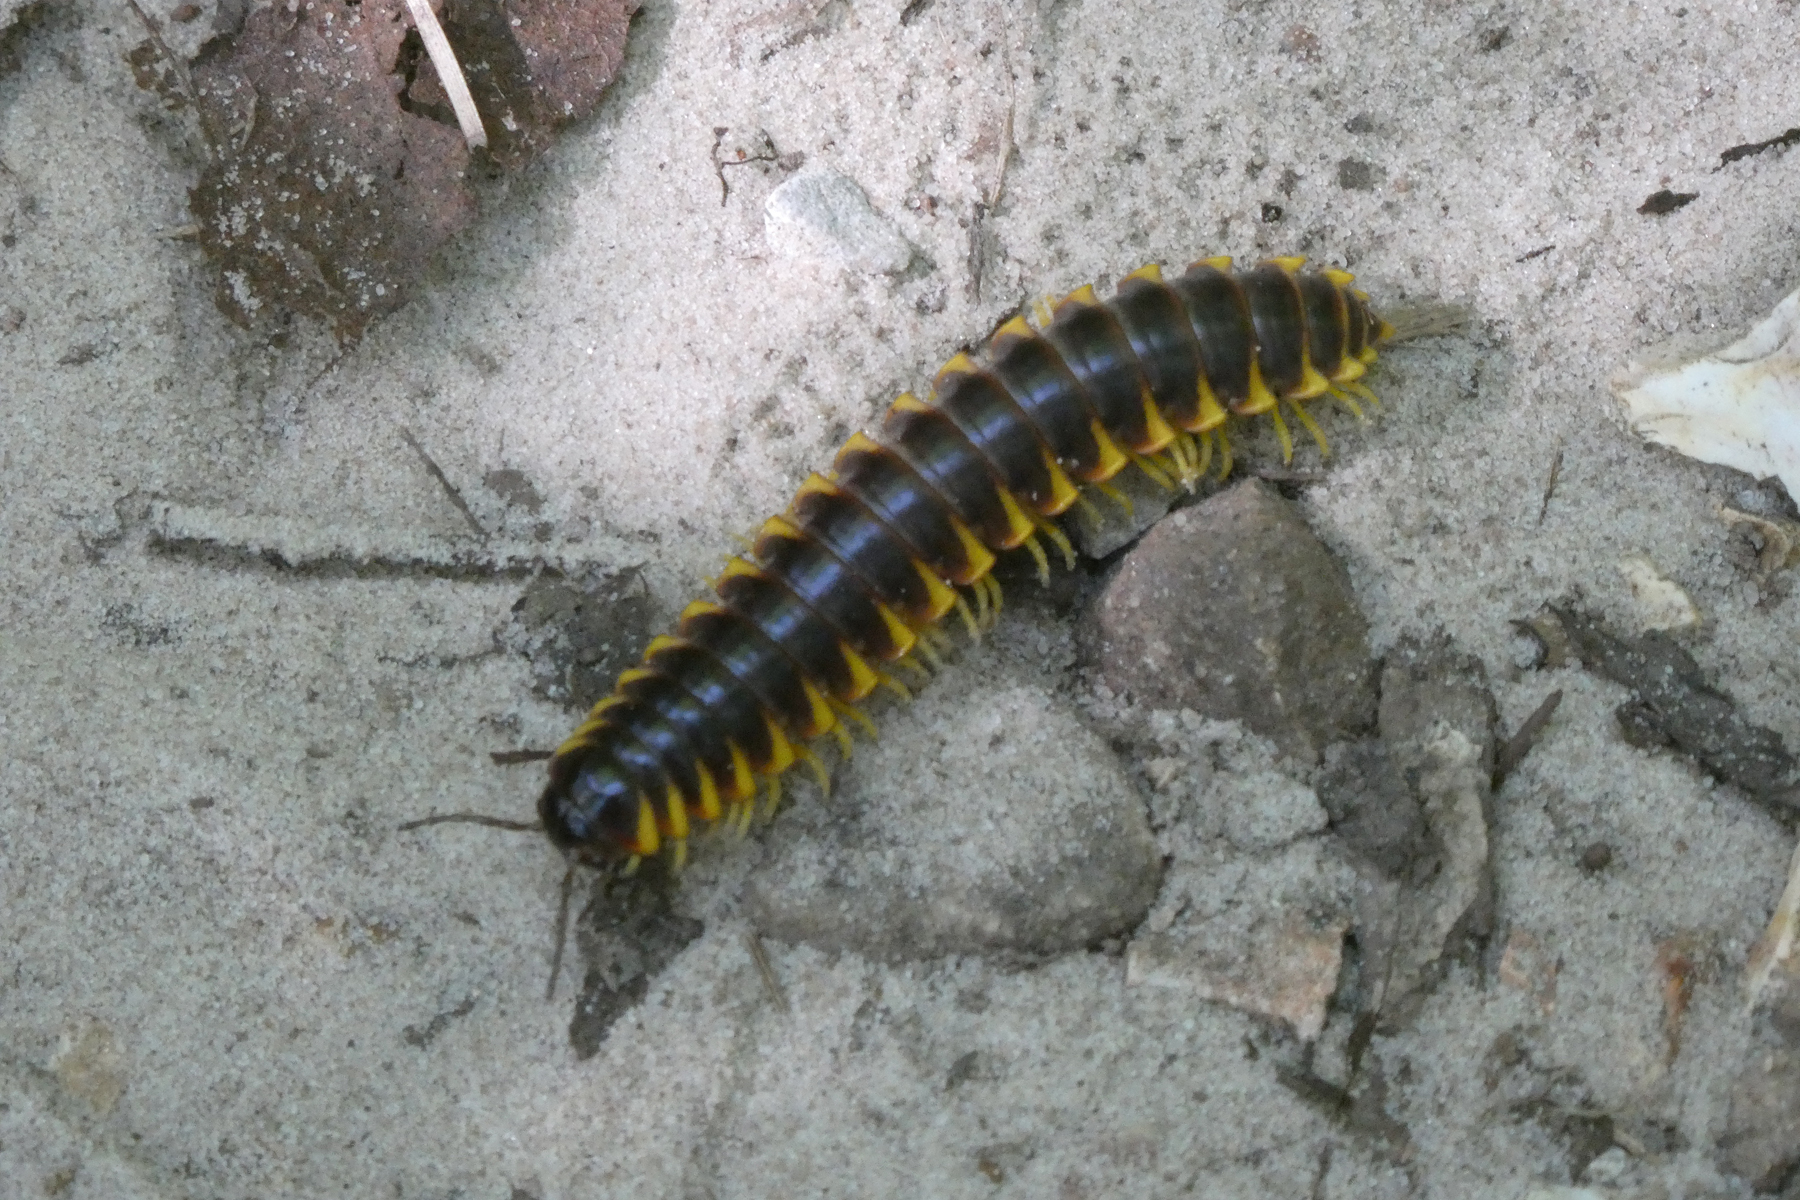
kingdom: Animalia
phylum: Arthropoda
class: Diplopoda
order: Polydesmida
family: Xystodesmidae
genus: Apheloria
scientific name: Apheloria virginiensis
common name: Black-and-gold flat millipede
